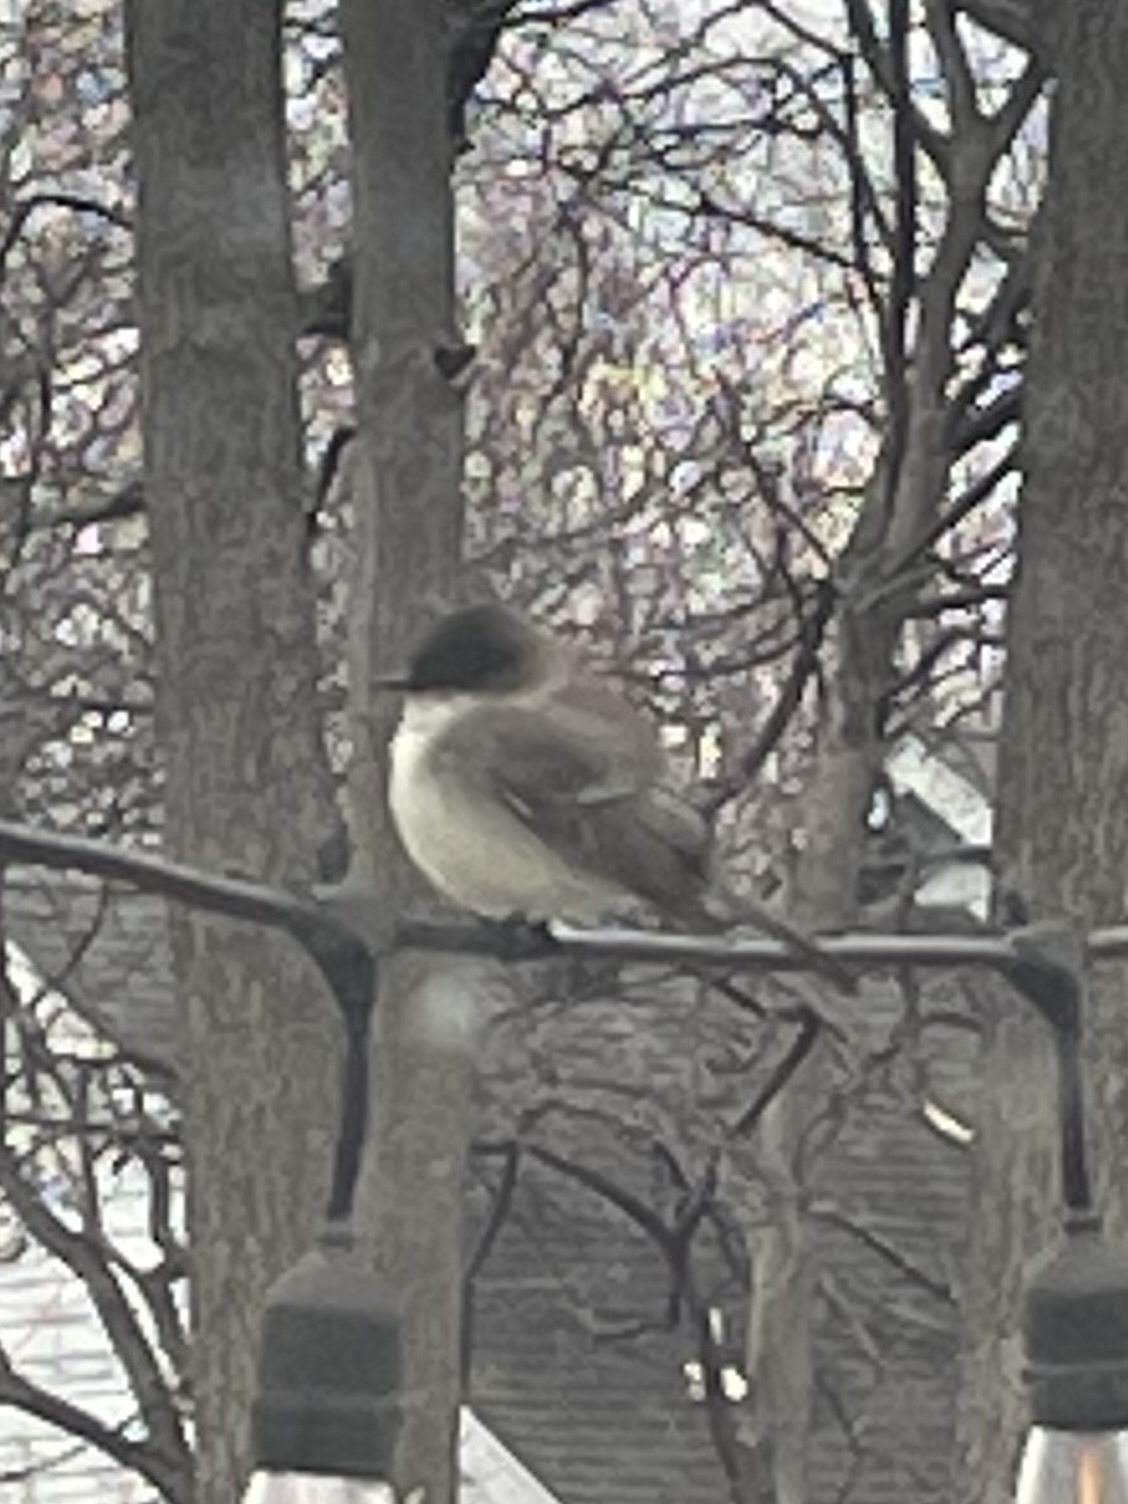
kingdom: Animalia
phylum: Chordata
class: Aves
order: Passeriformes
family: Tyrannidae
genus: Sayornis
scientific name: Sayornis phoebe
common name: Eastern phoebe
